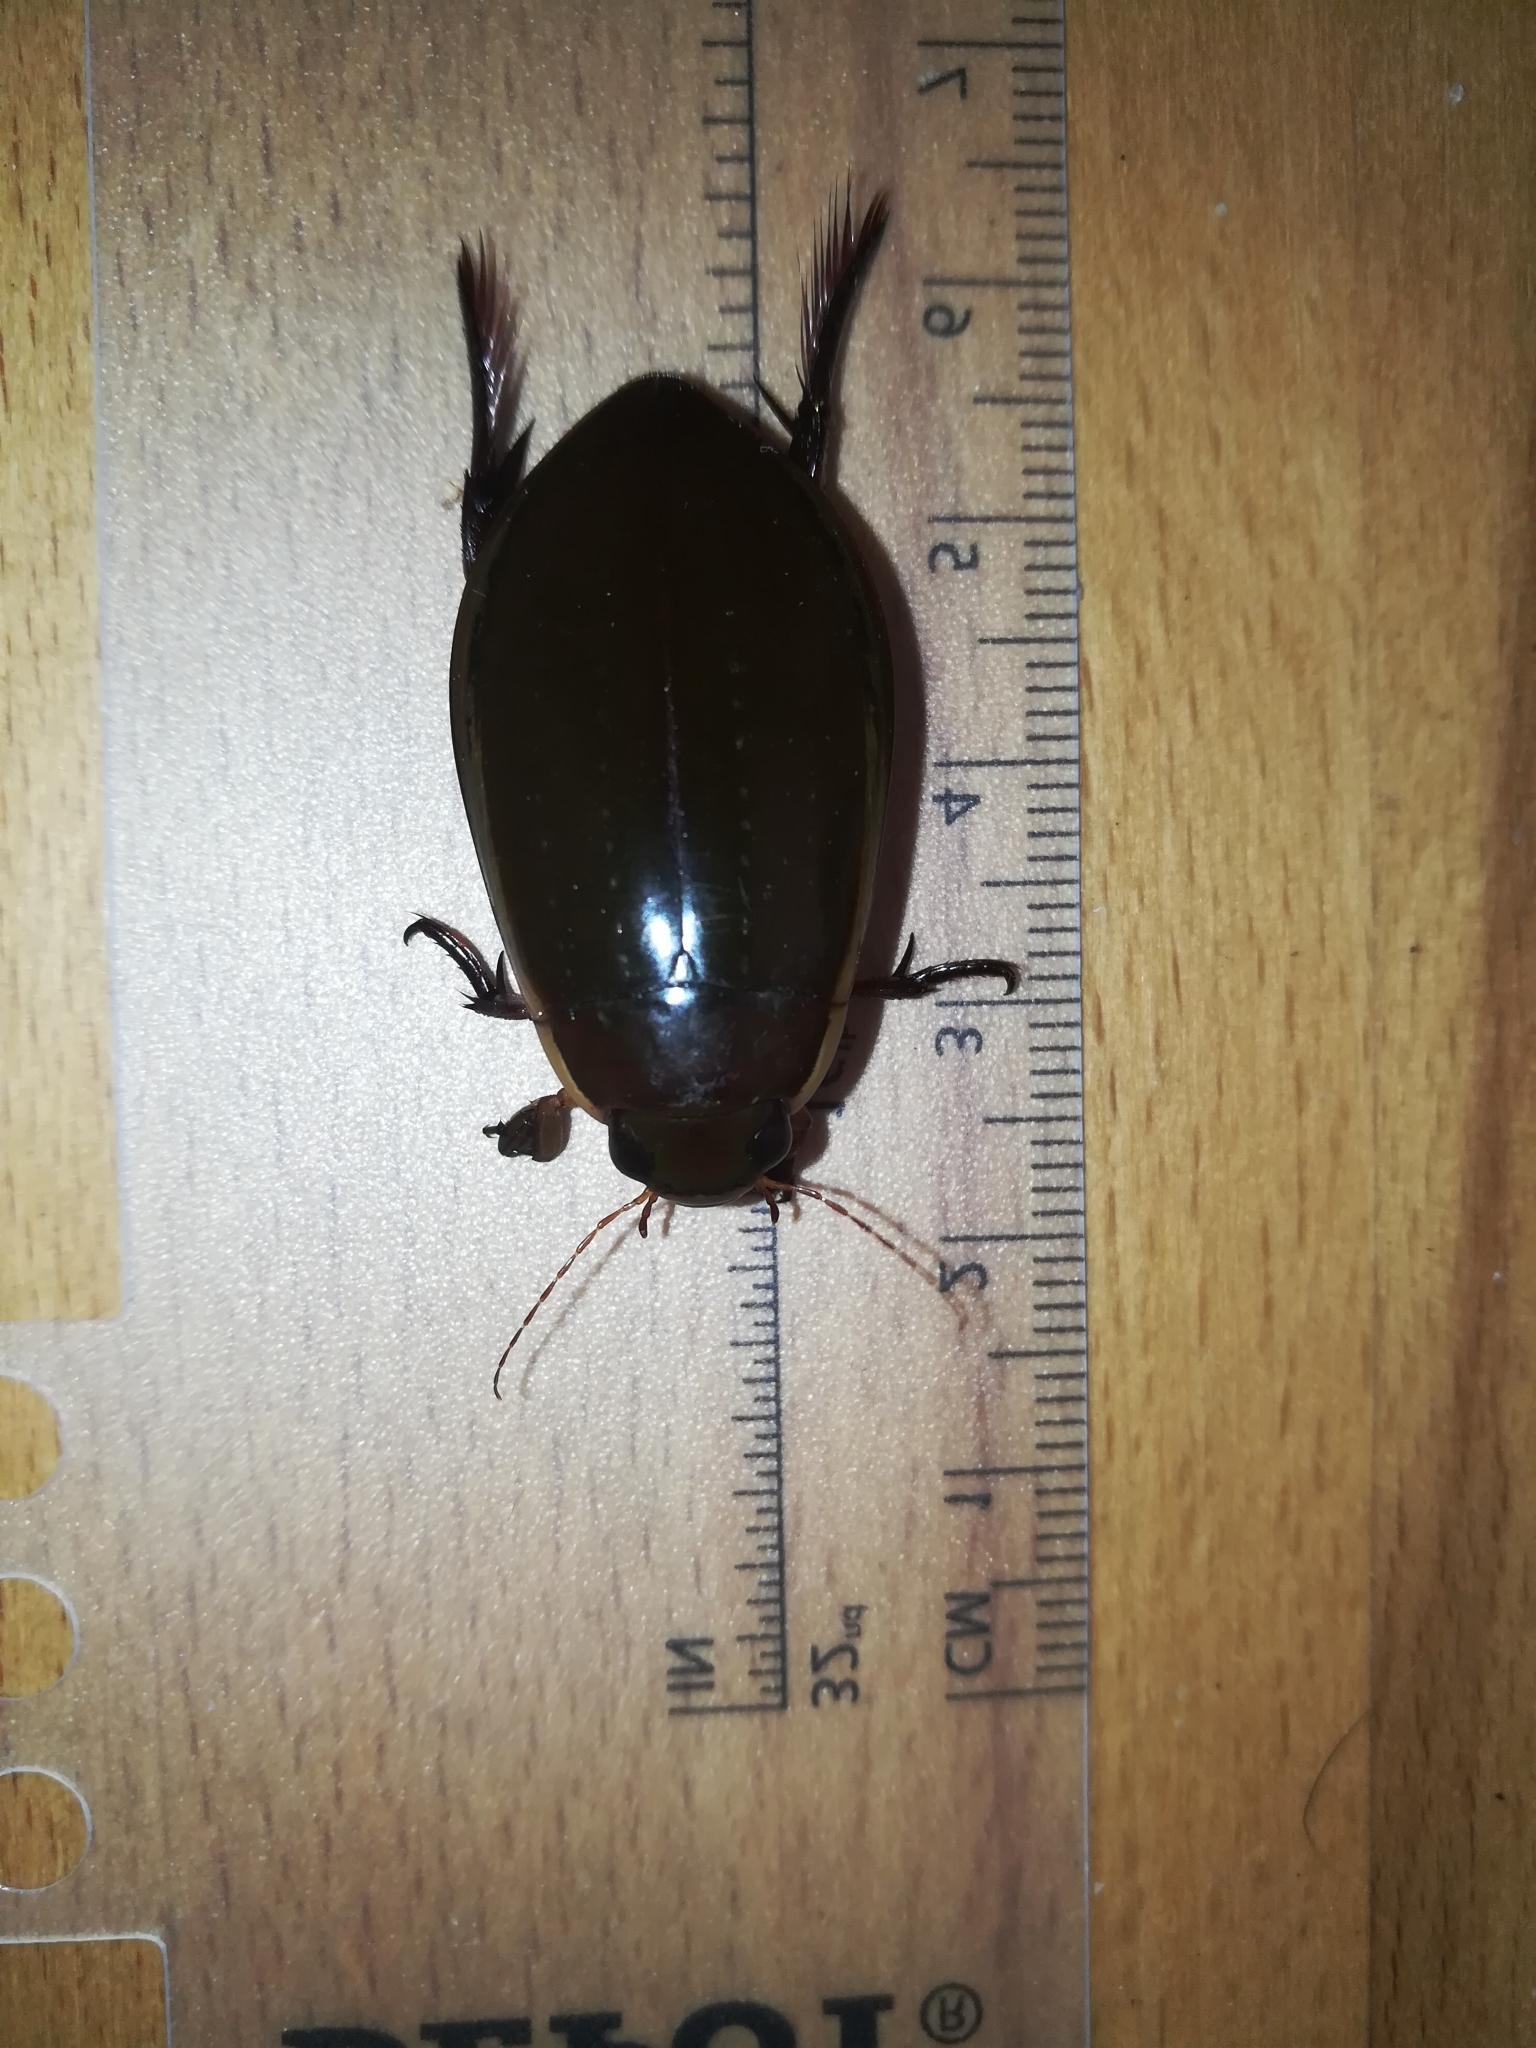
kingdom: Animalia
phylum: Arthropoda
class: Insecta
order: Coleoptera
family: Dytiscidae
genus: Cybister
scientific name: Cybister lateralimarginalis
